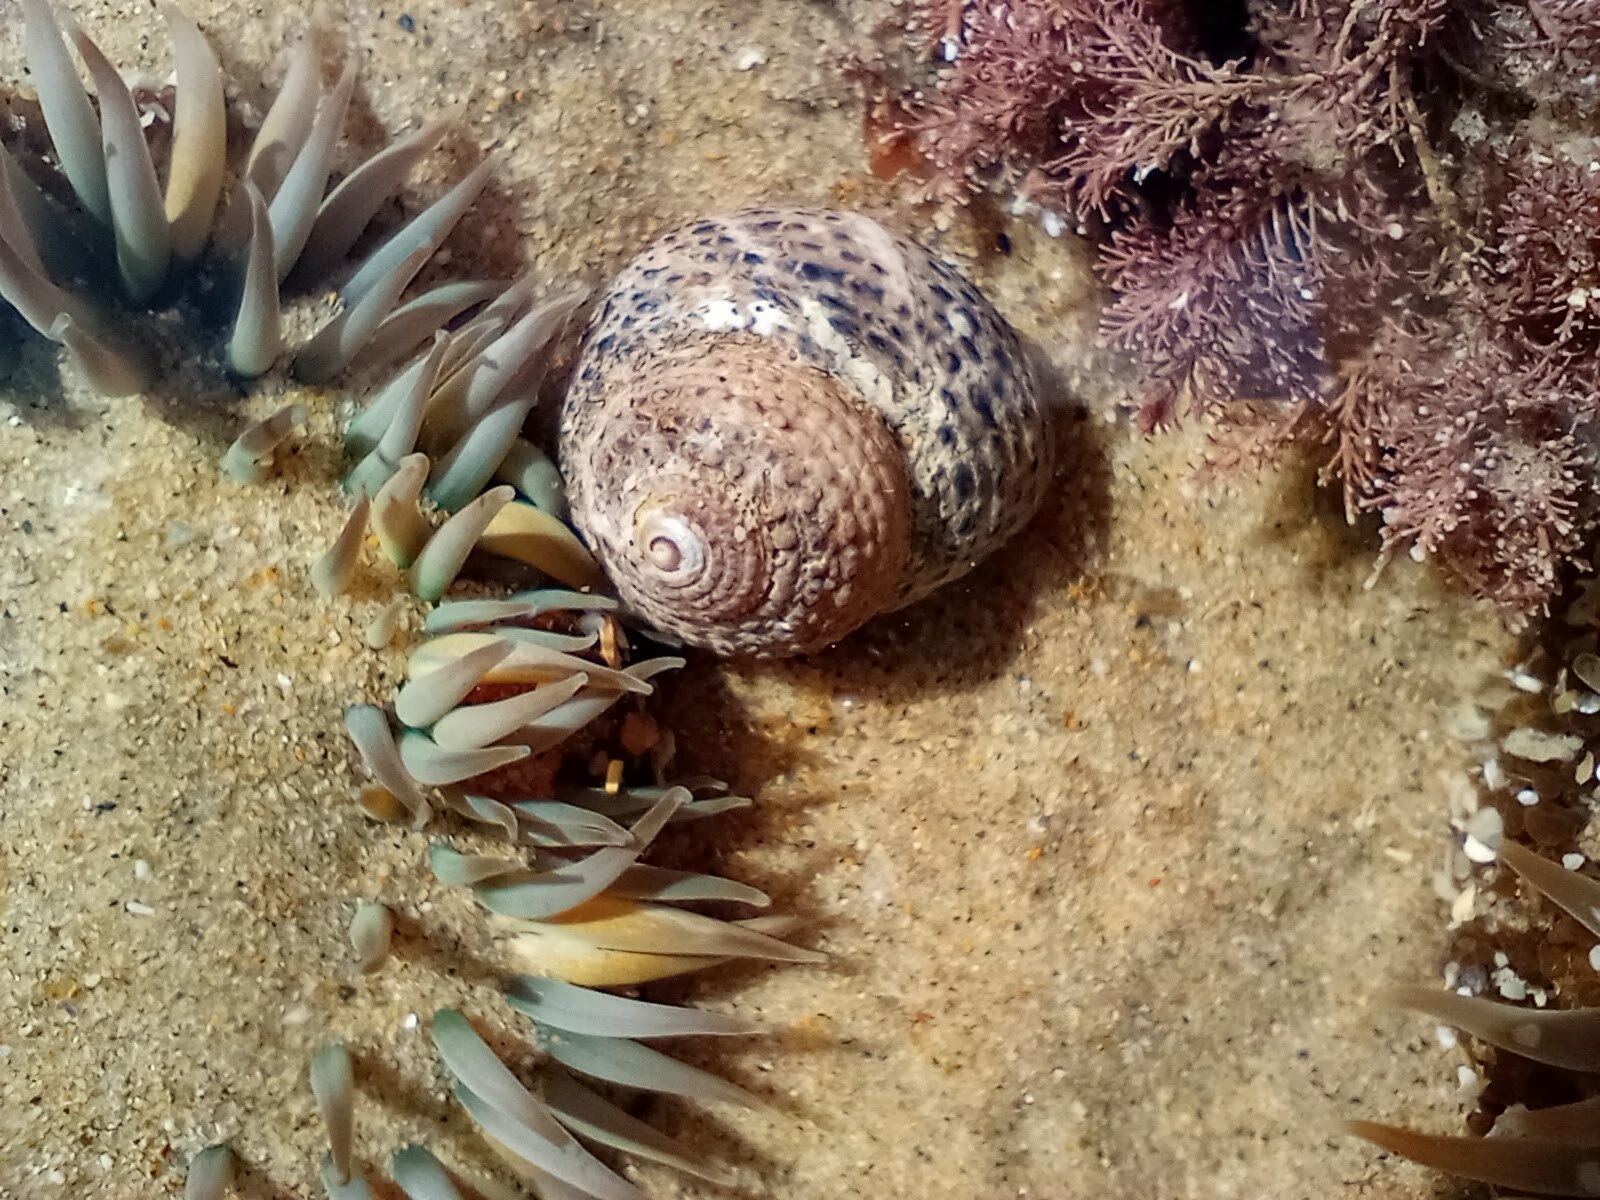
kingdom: Animalia
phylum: Mollusca
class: Gastropoda
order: Trochida
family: Tegulidae
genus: Tegula
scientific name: Tegula eiseni
